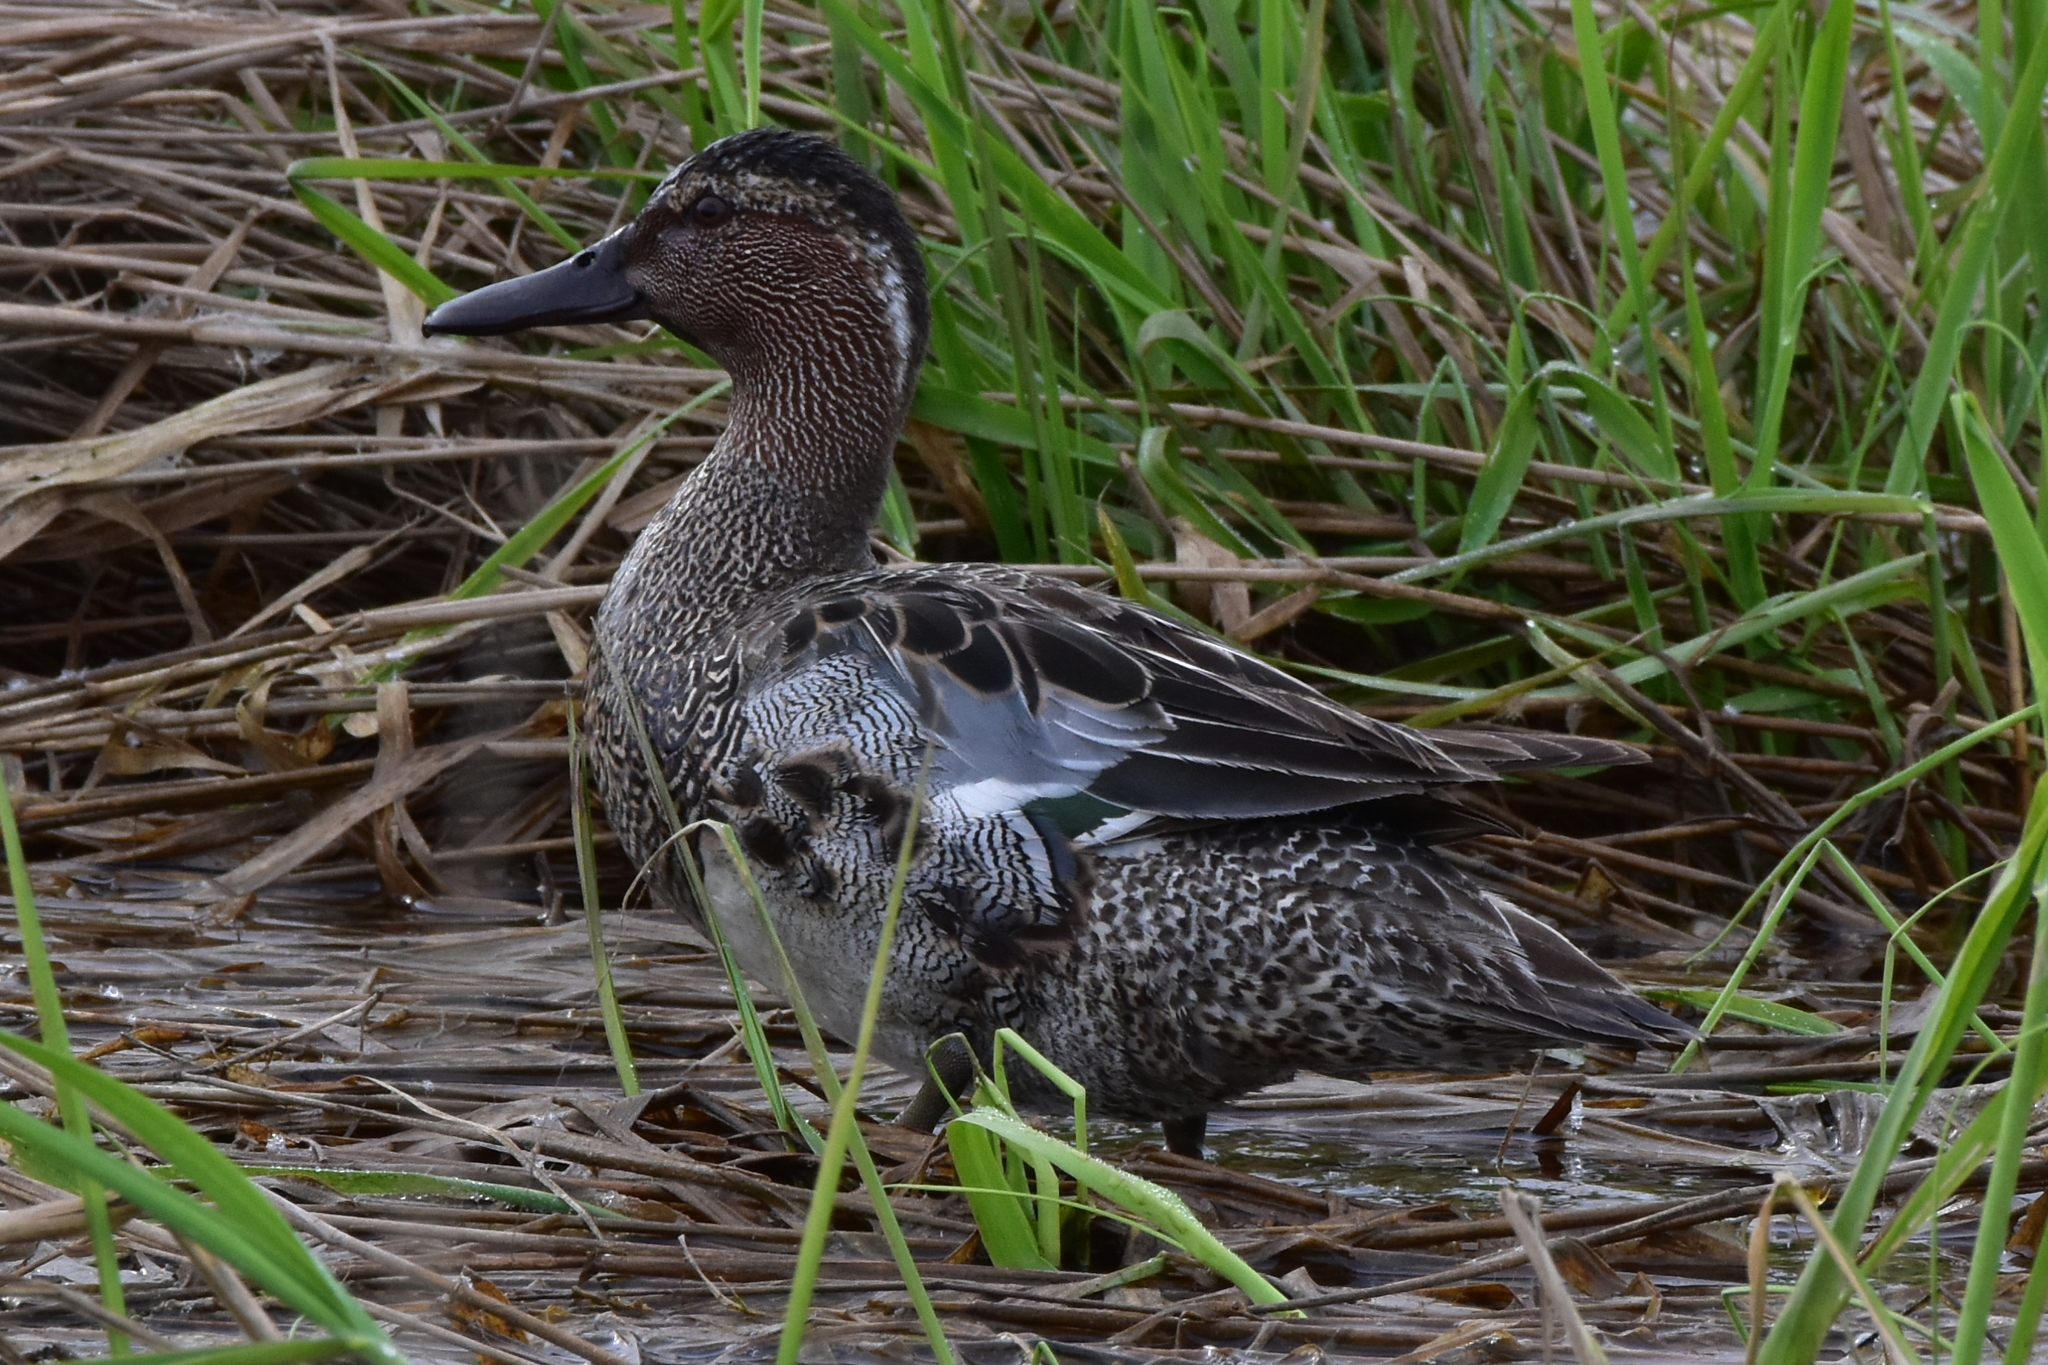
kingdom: Animalia
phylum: Chordata
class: Aves
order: Anseriformes
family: Anatidae
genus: Spatula
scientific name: Spatula querquedula
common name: Garganey
